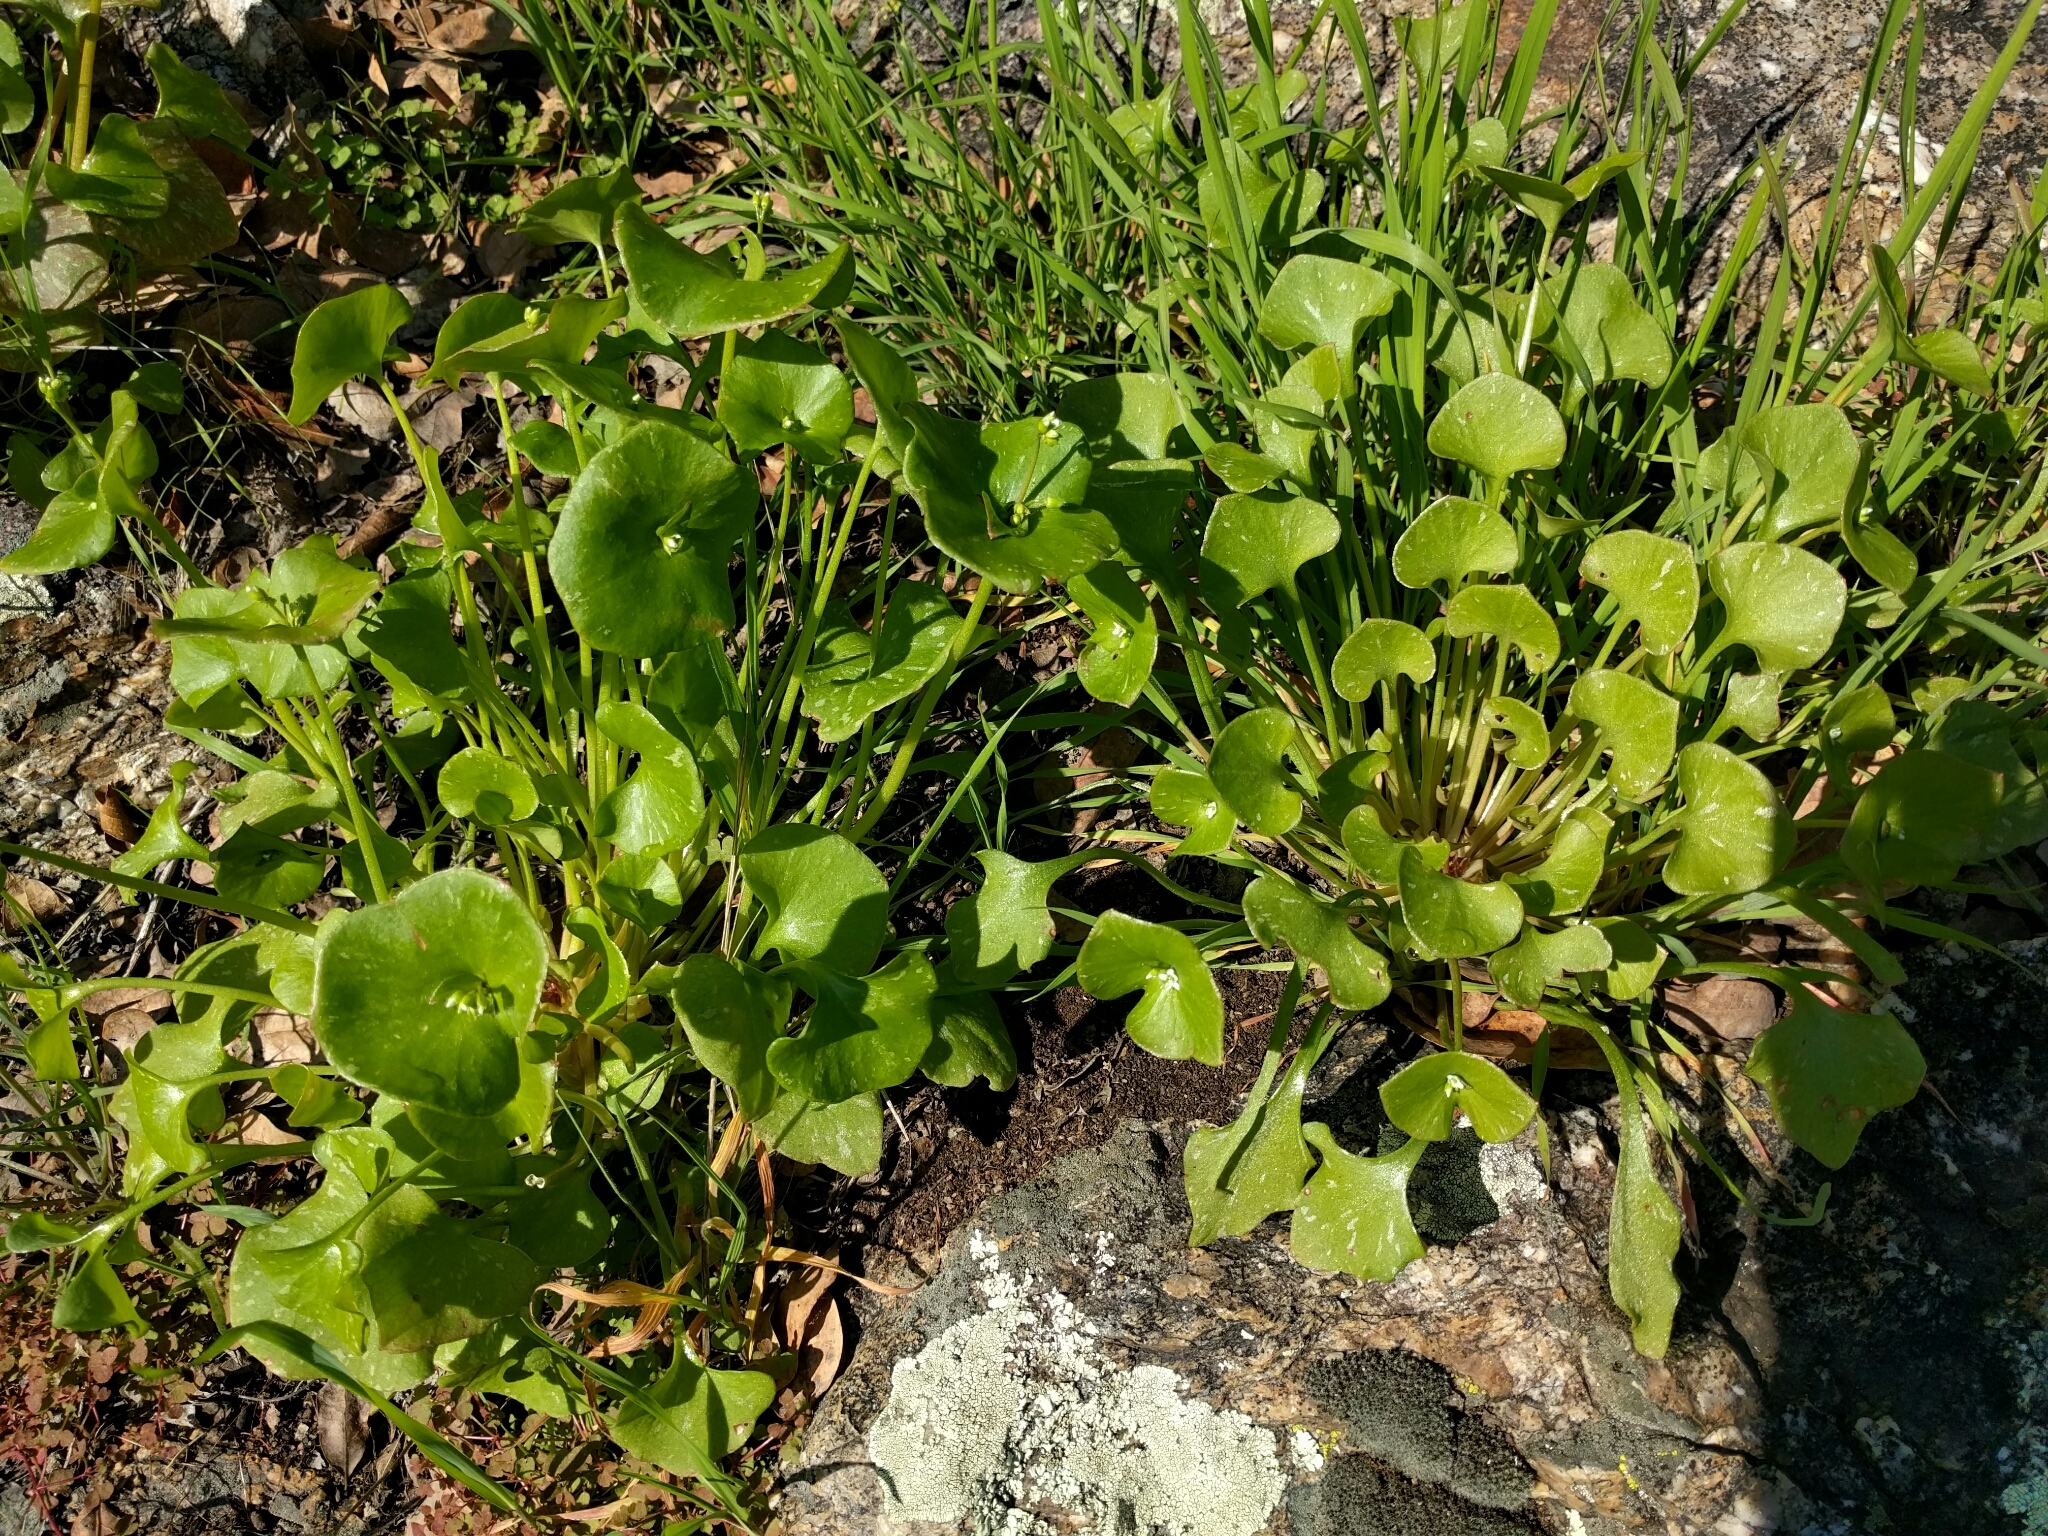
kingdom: Plantae
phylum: Tracheophyta
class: Magnoliopsida
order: Caryophyllales
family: Montiaceae
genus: Claytonia
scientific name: Claytonia perfoliata
